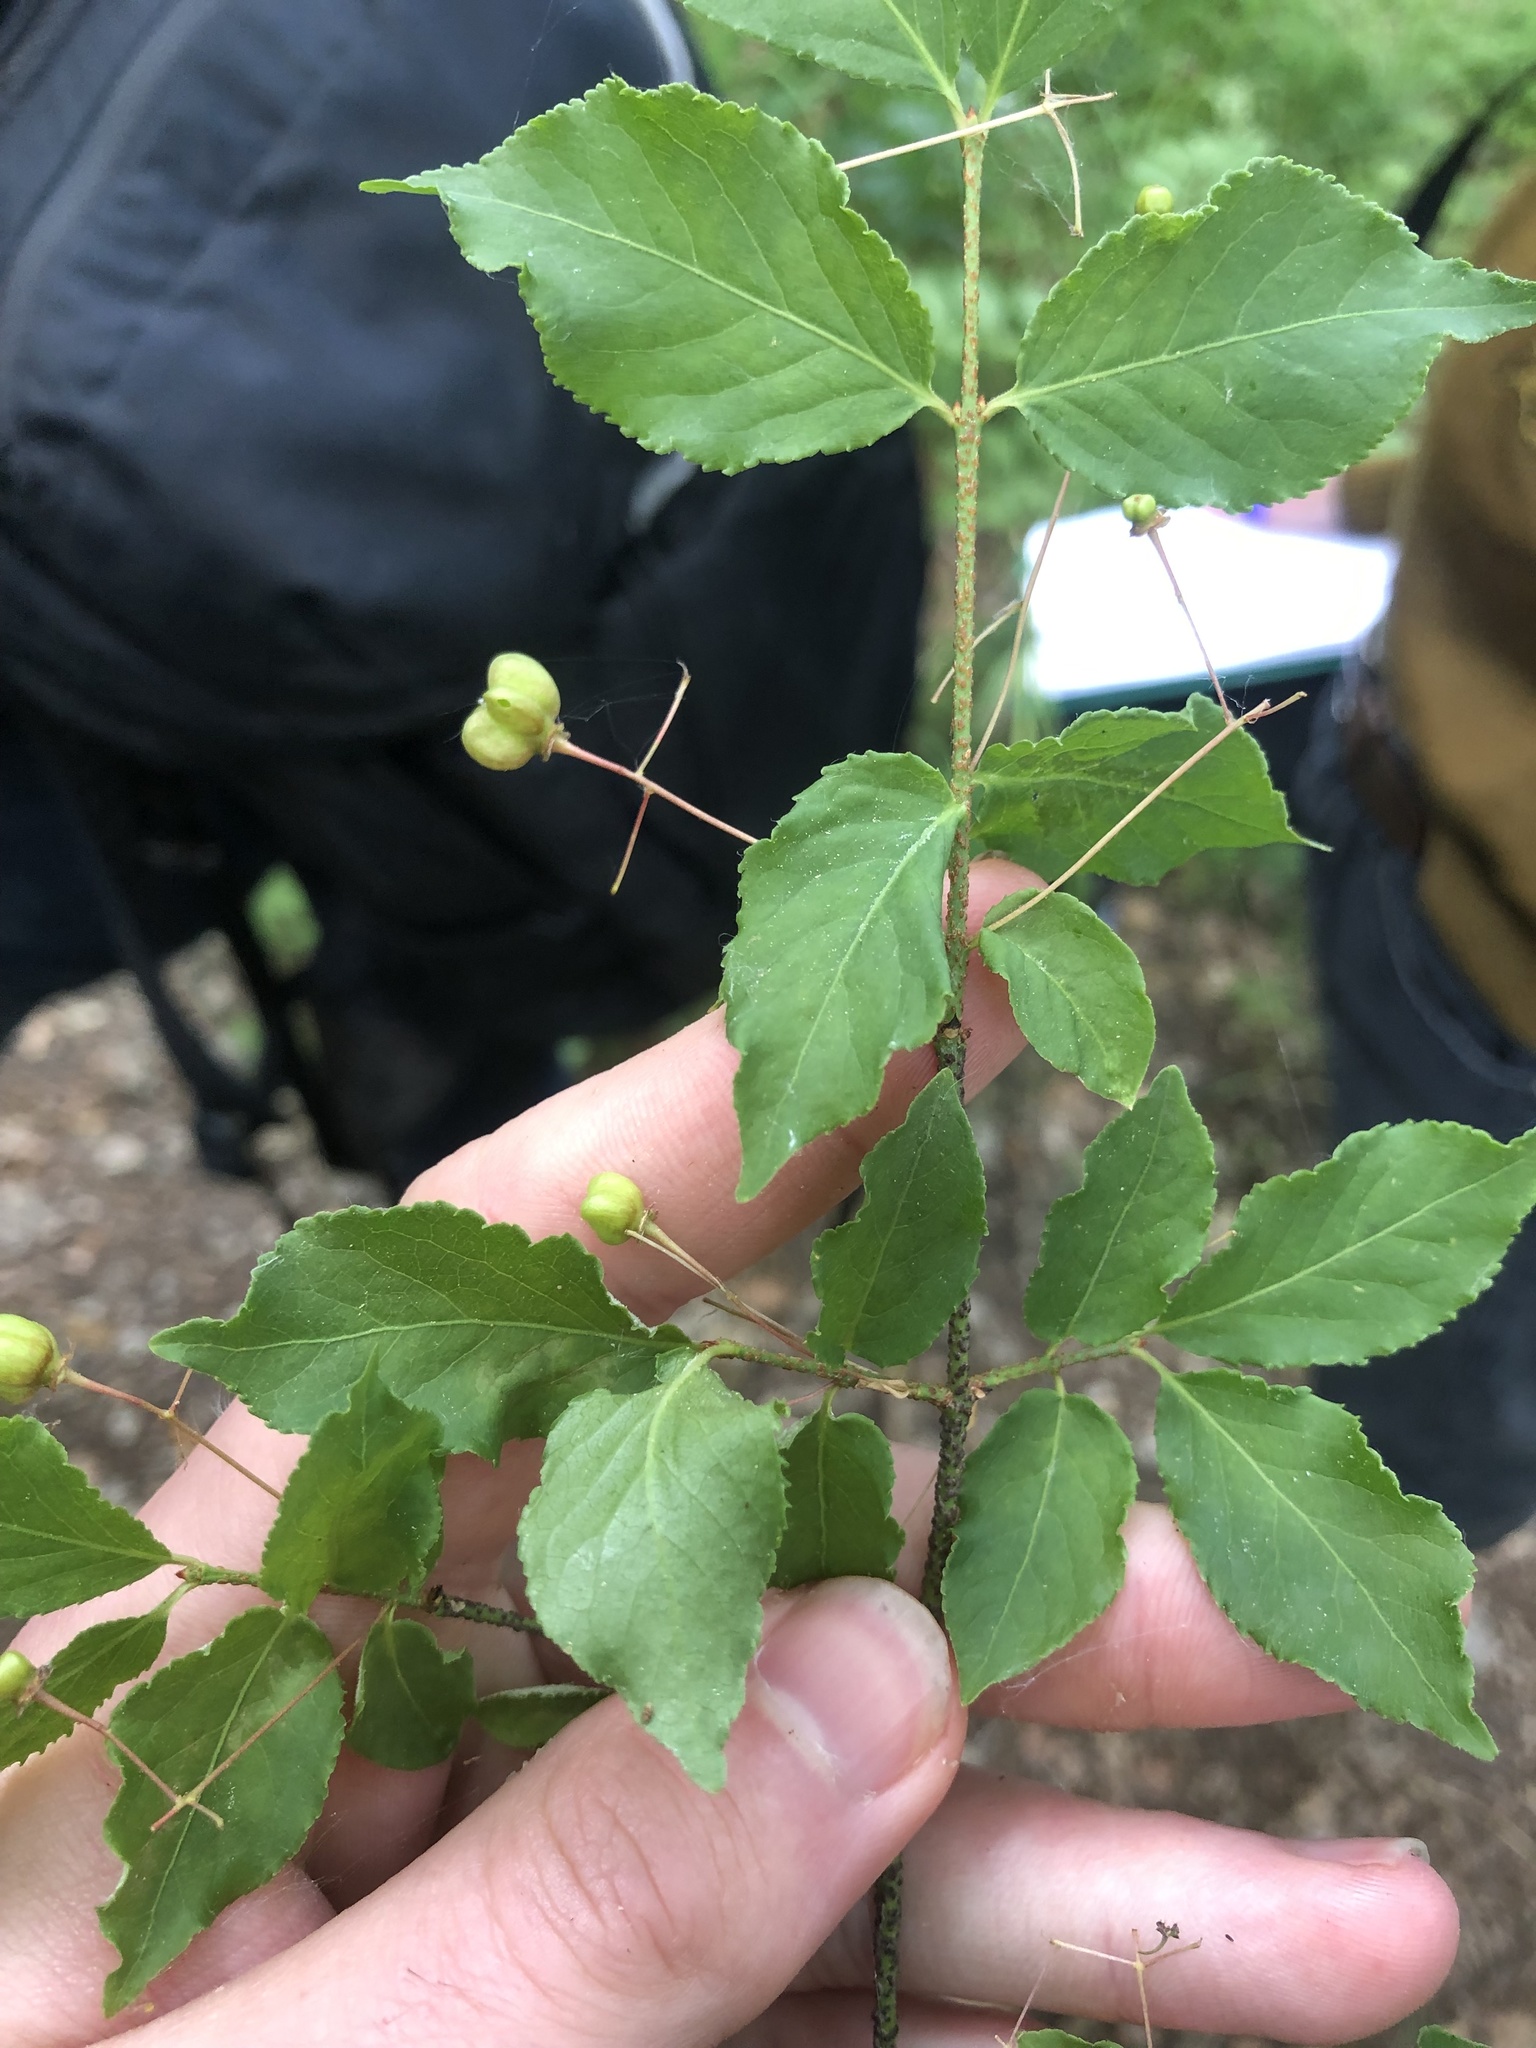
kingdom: Plantae
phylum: Tracheophyta
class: Magnoliopsida
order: Celastrales
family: Celastraceae
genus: Euonymus
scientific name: Euonymus verrucosus
